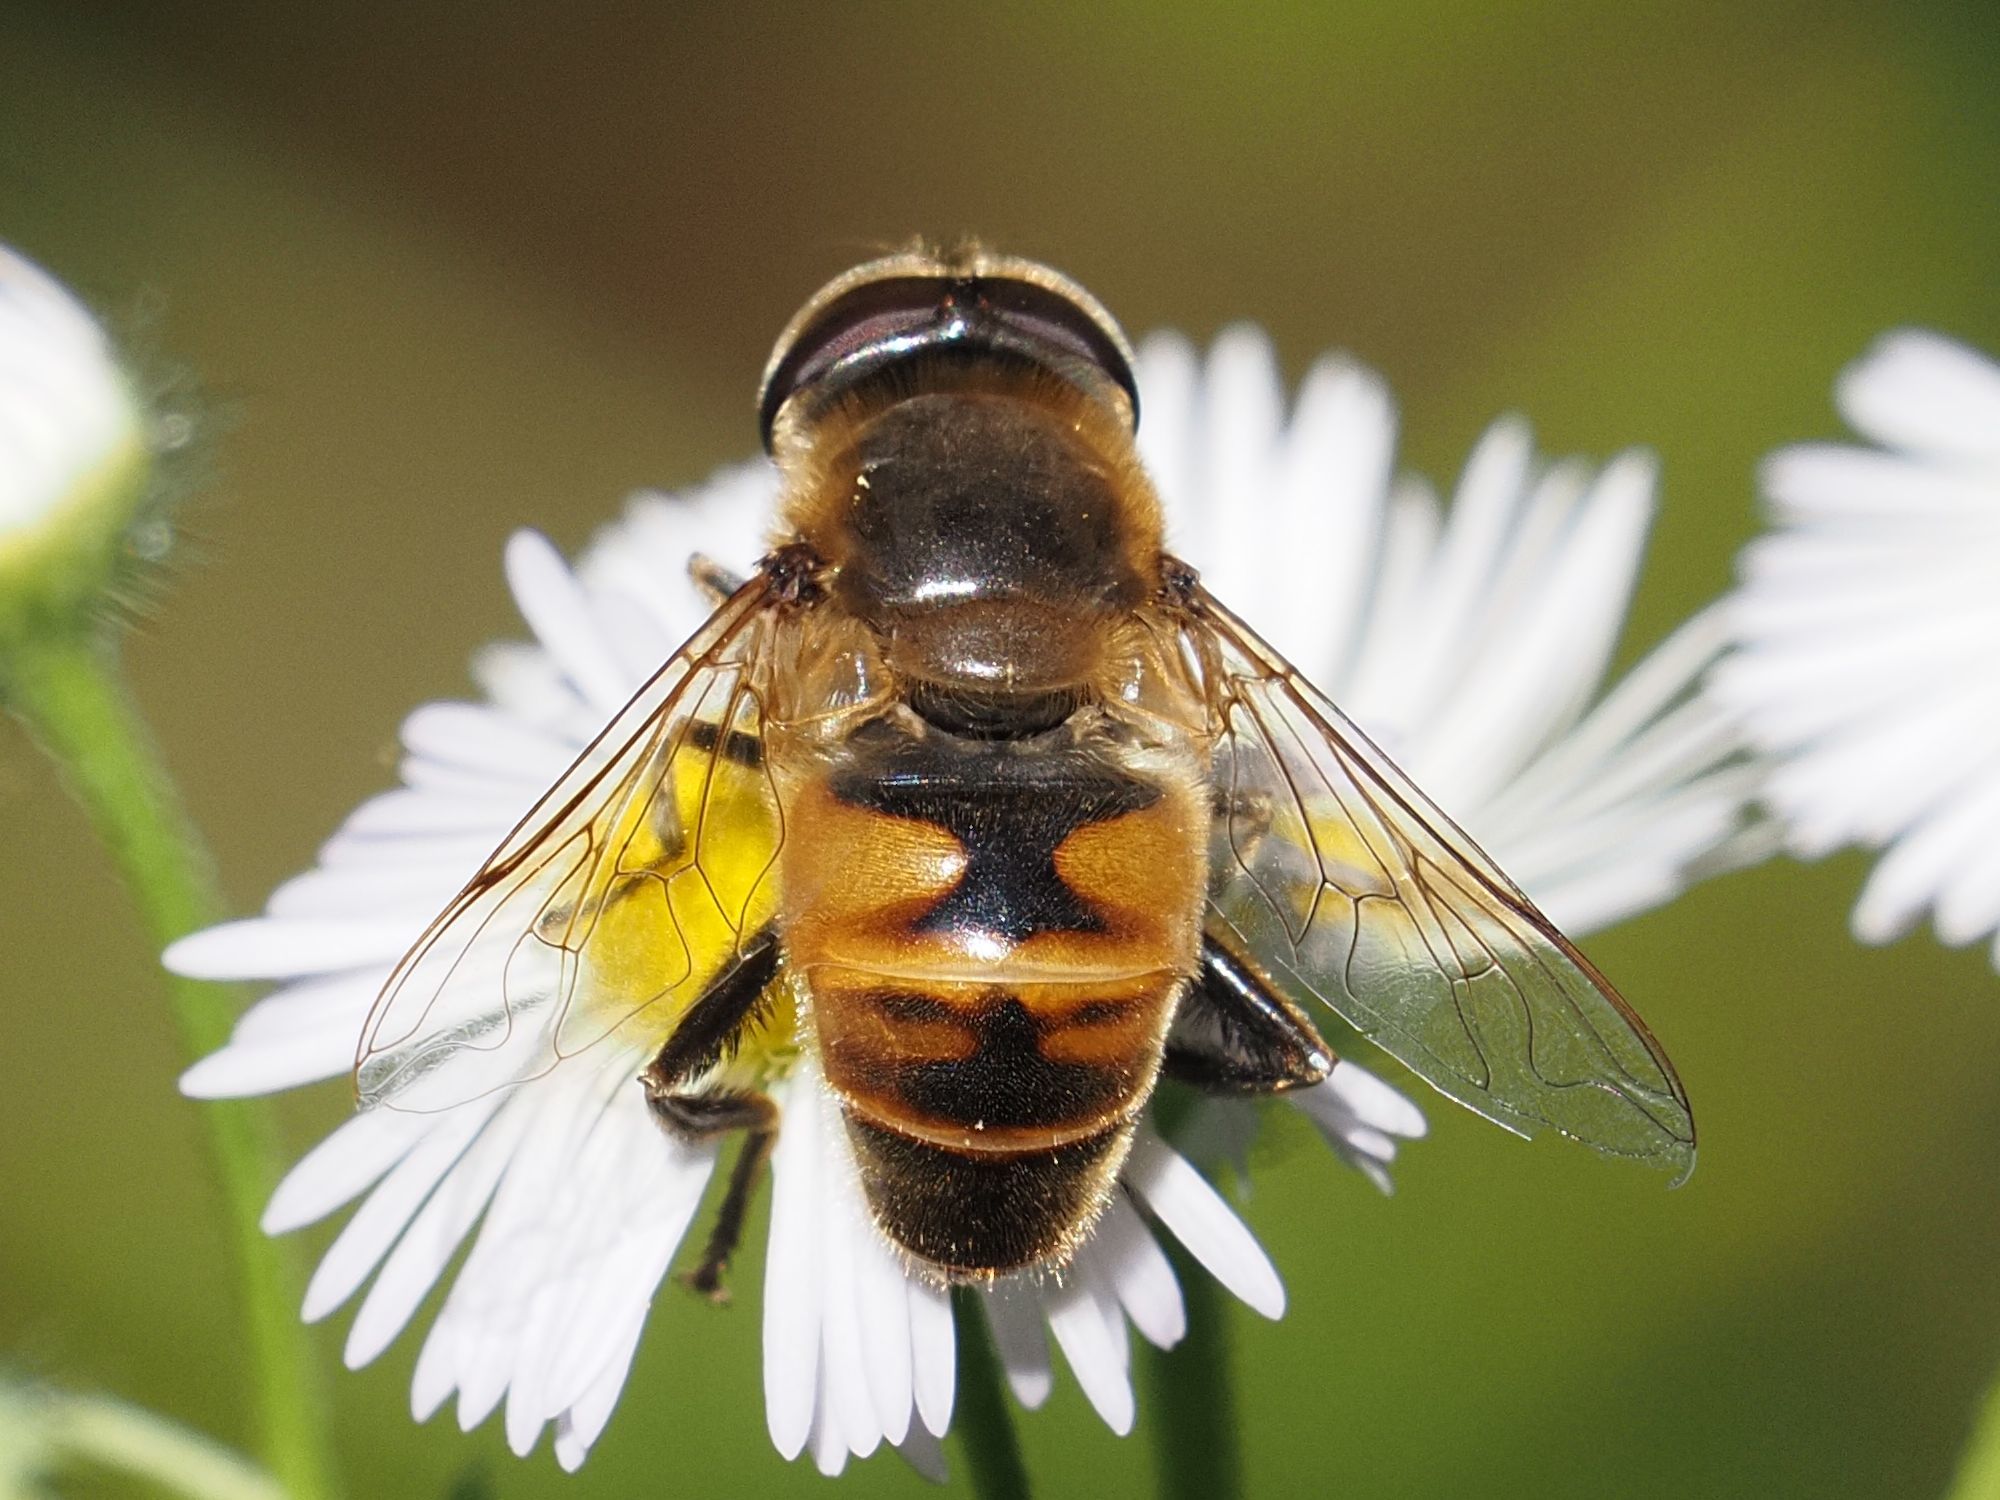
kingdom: Animalia
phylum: Arthropoda
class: Insecta
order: Diptera
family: Syrphidae
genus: Eristalis
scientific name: Eristalis tenax
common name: Drone fly
